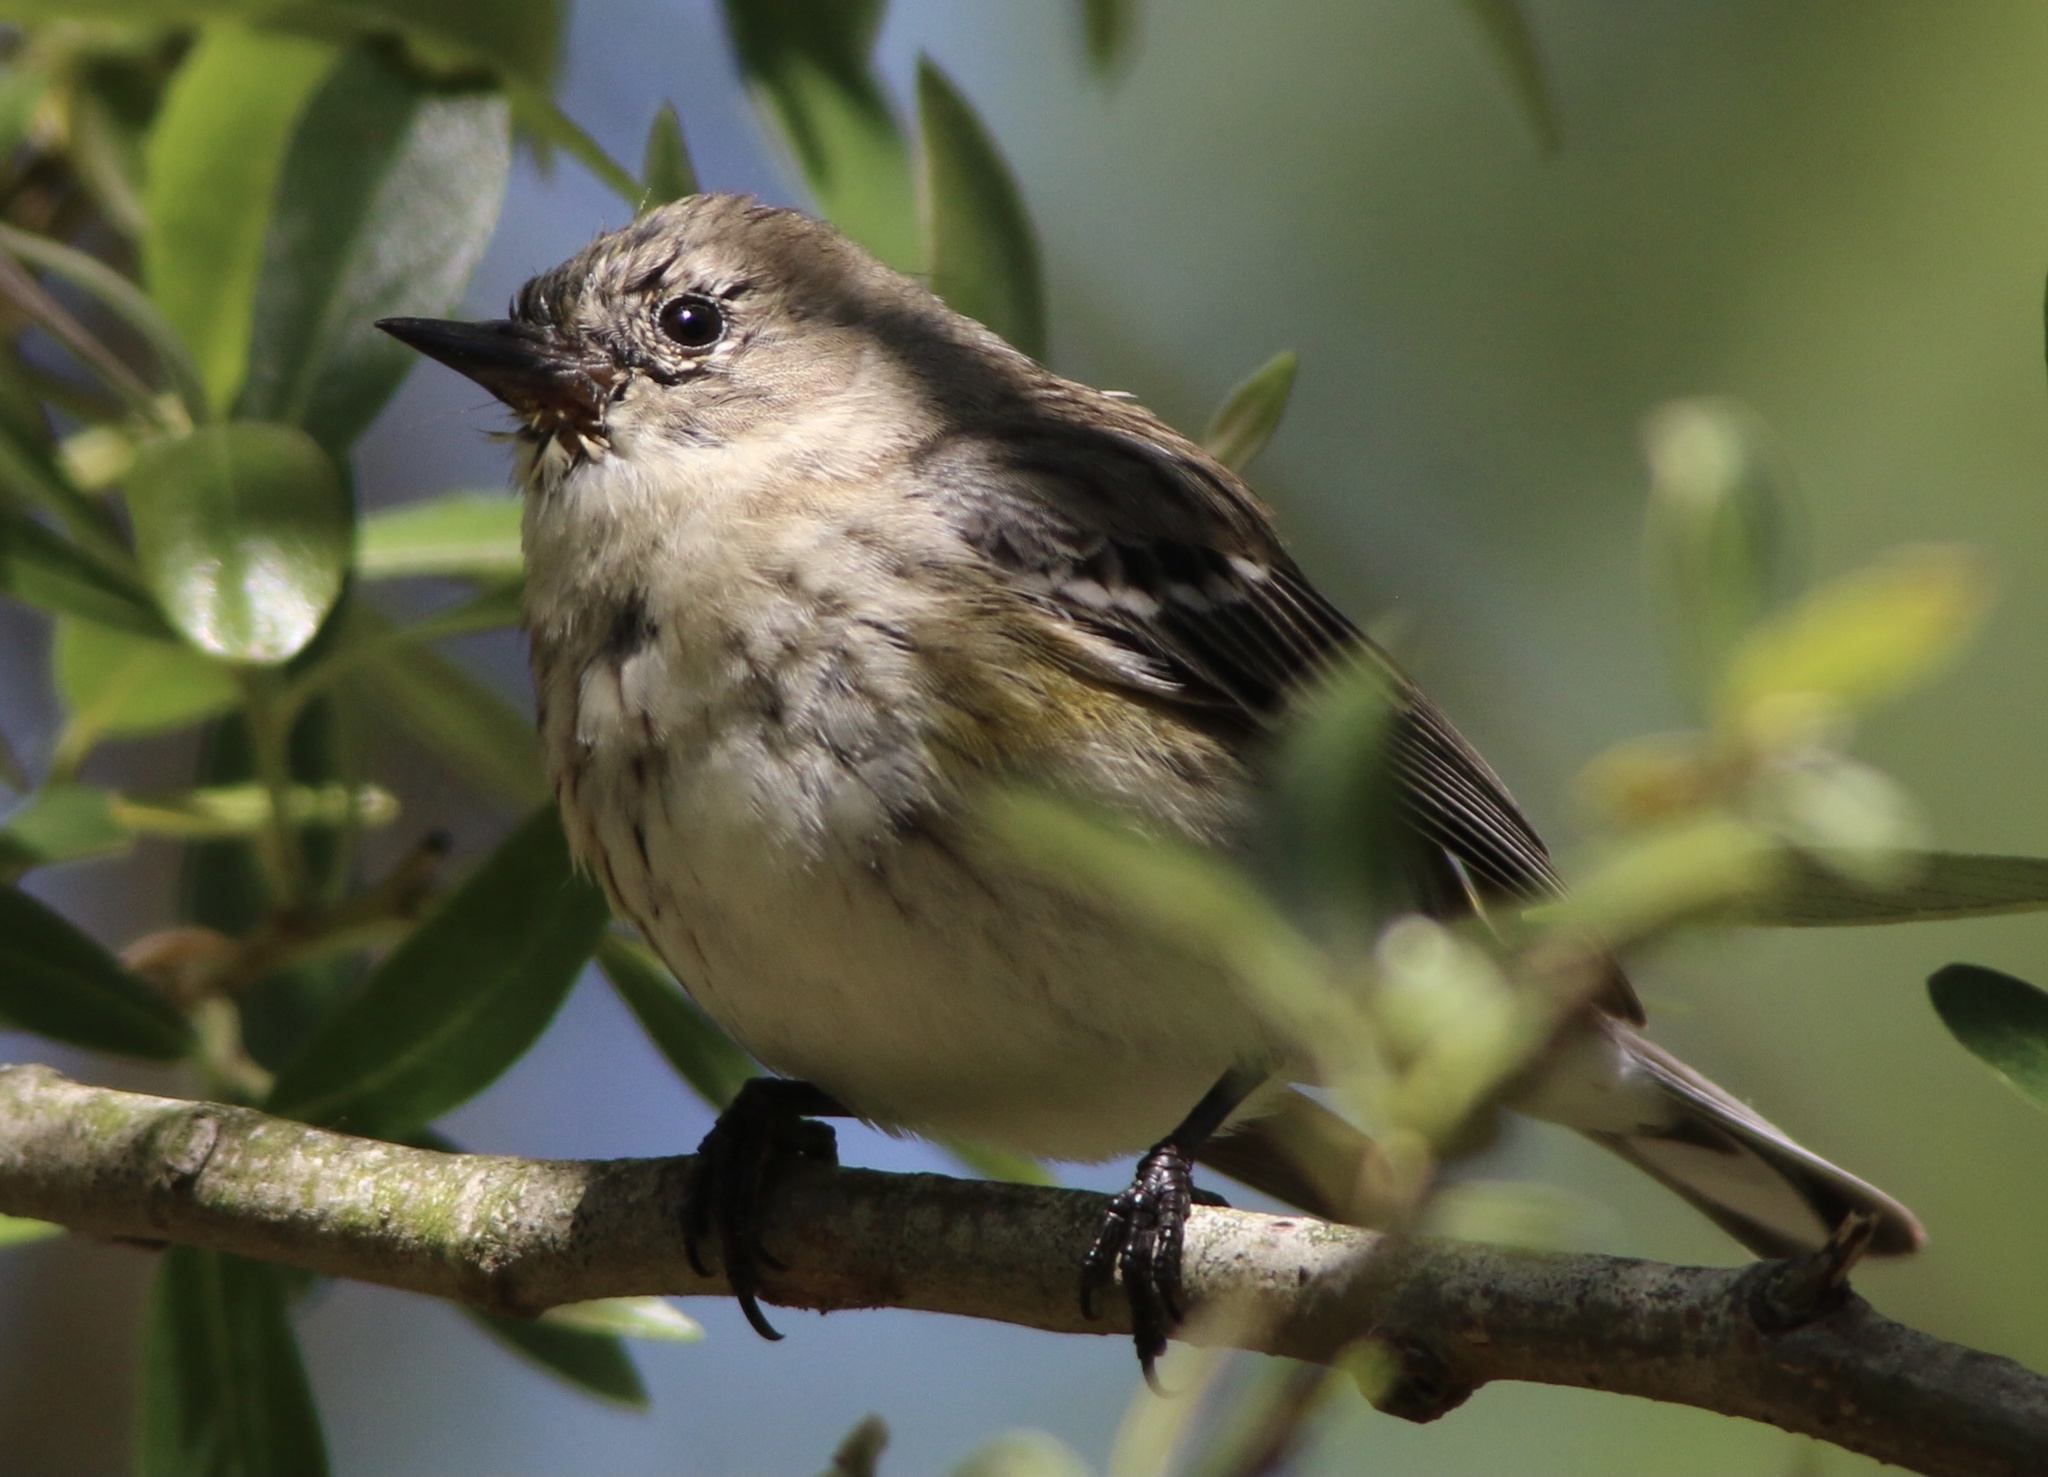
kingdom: Animalia
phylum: Chordata
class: Aves
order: Passeriformes
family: Parulidae
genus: Setophaga
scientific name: Setophaga coronata
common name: Myrtle warbler
